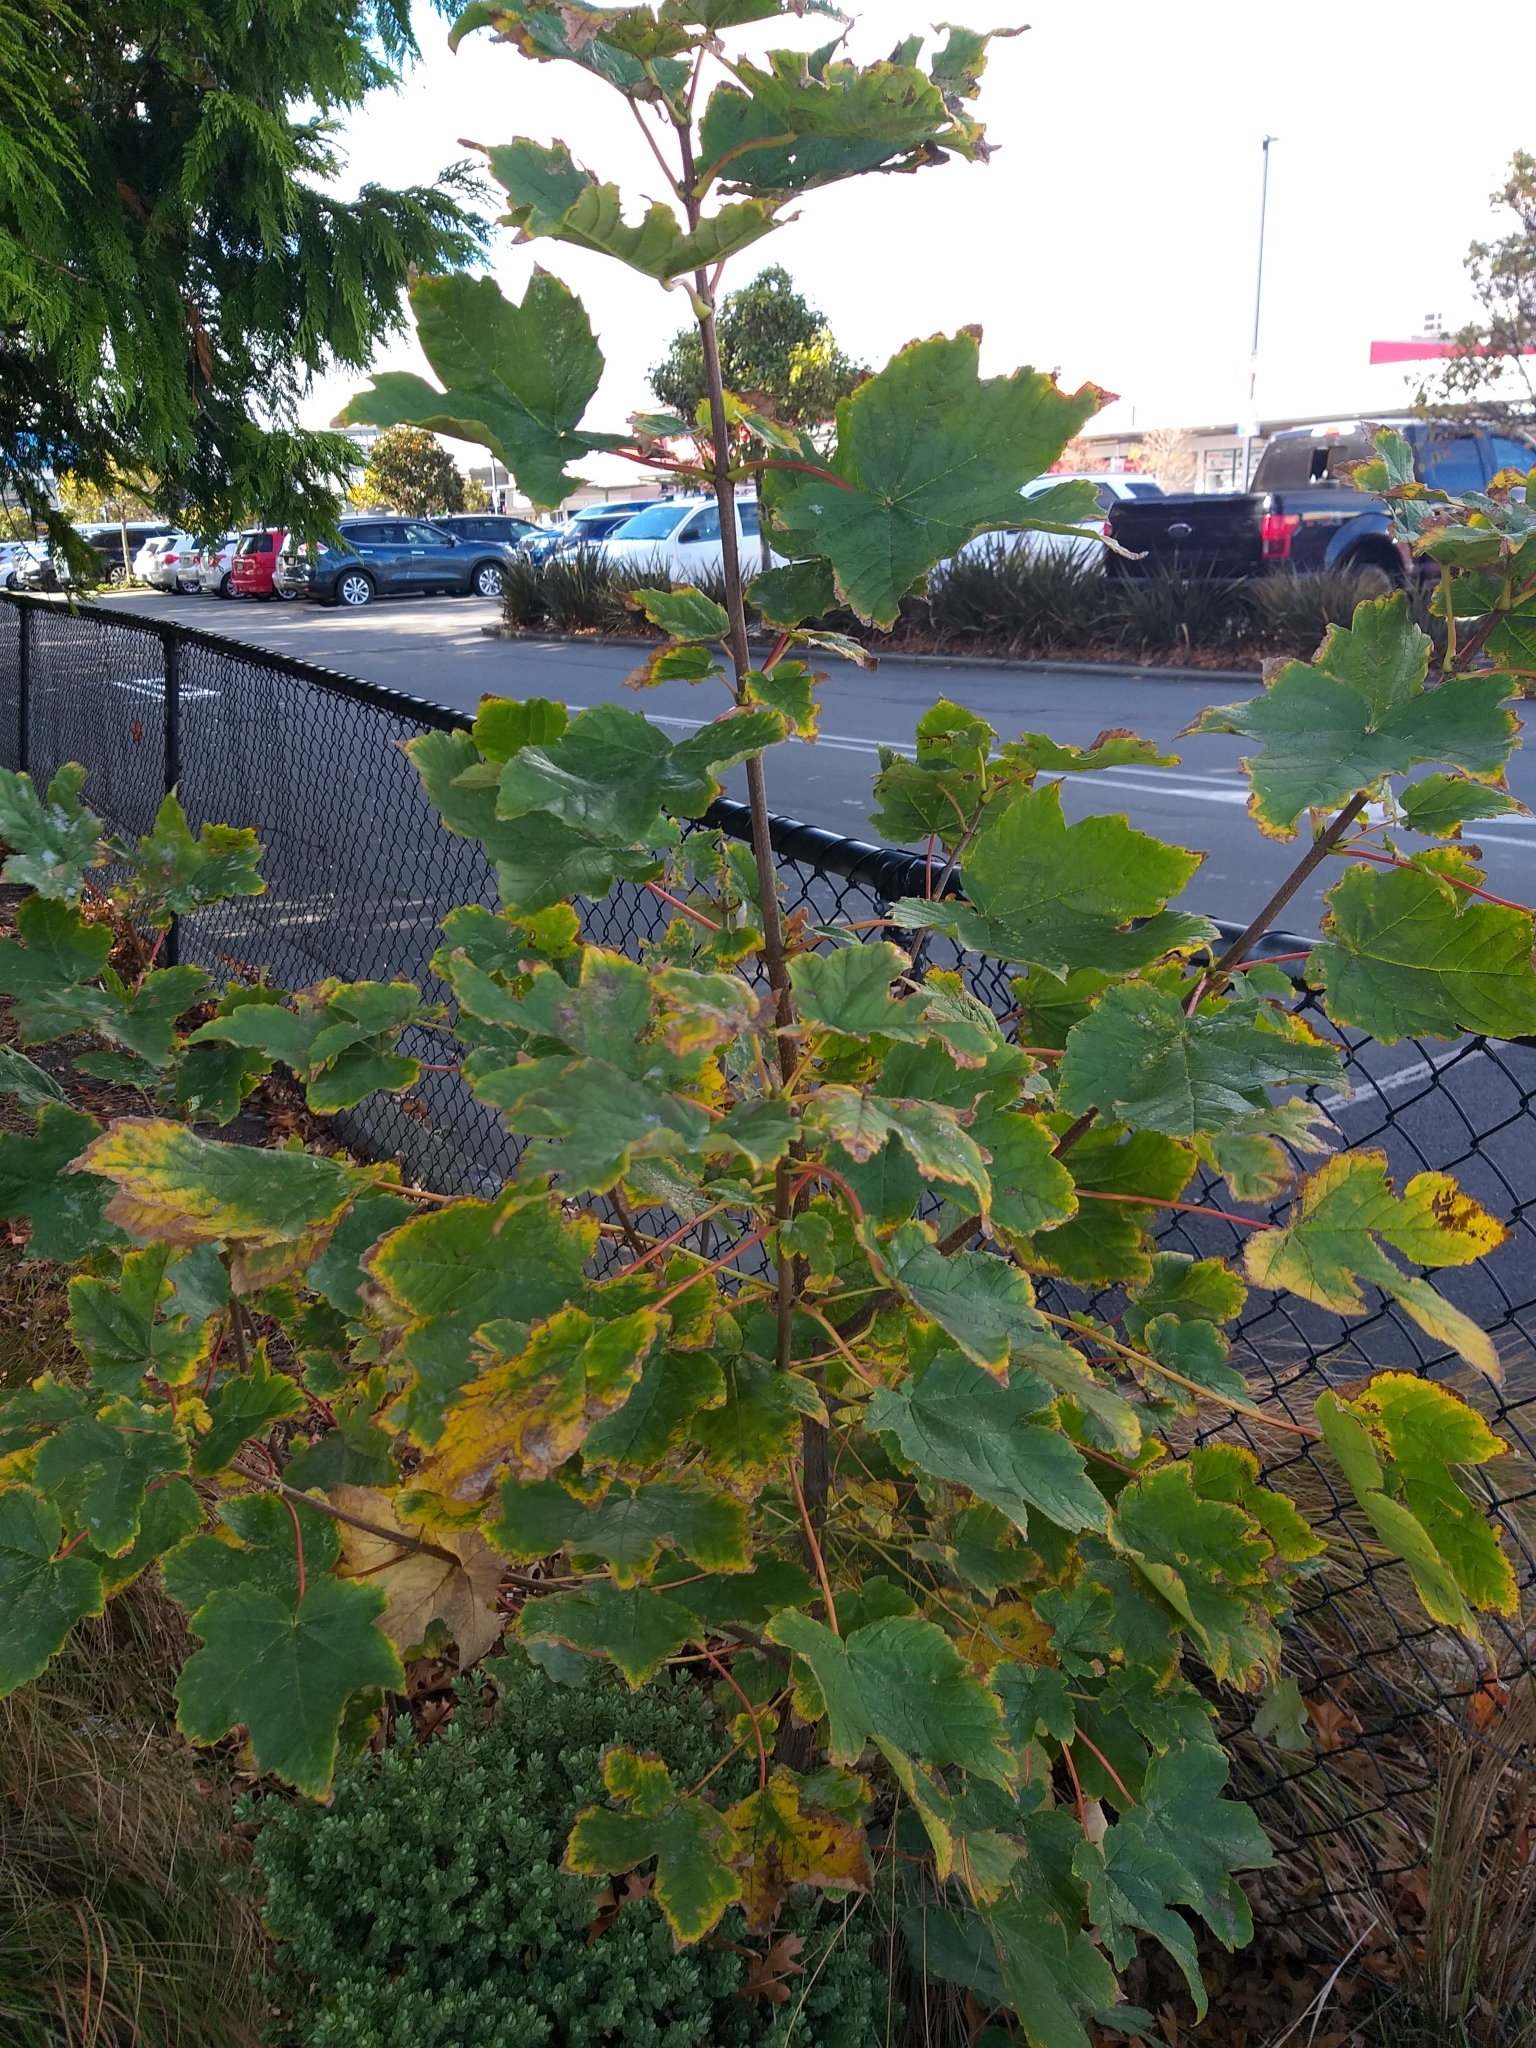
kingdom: Plantae
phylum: Tracheophyta
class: Magnoliopsida
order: Sapindales
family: Sapindaceae
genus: Acer
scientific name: Acer pseudoplatanus
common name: Sycamore
